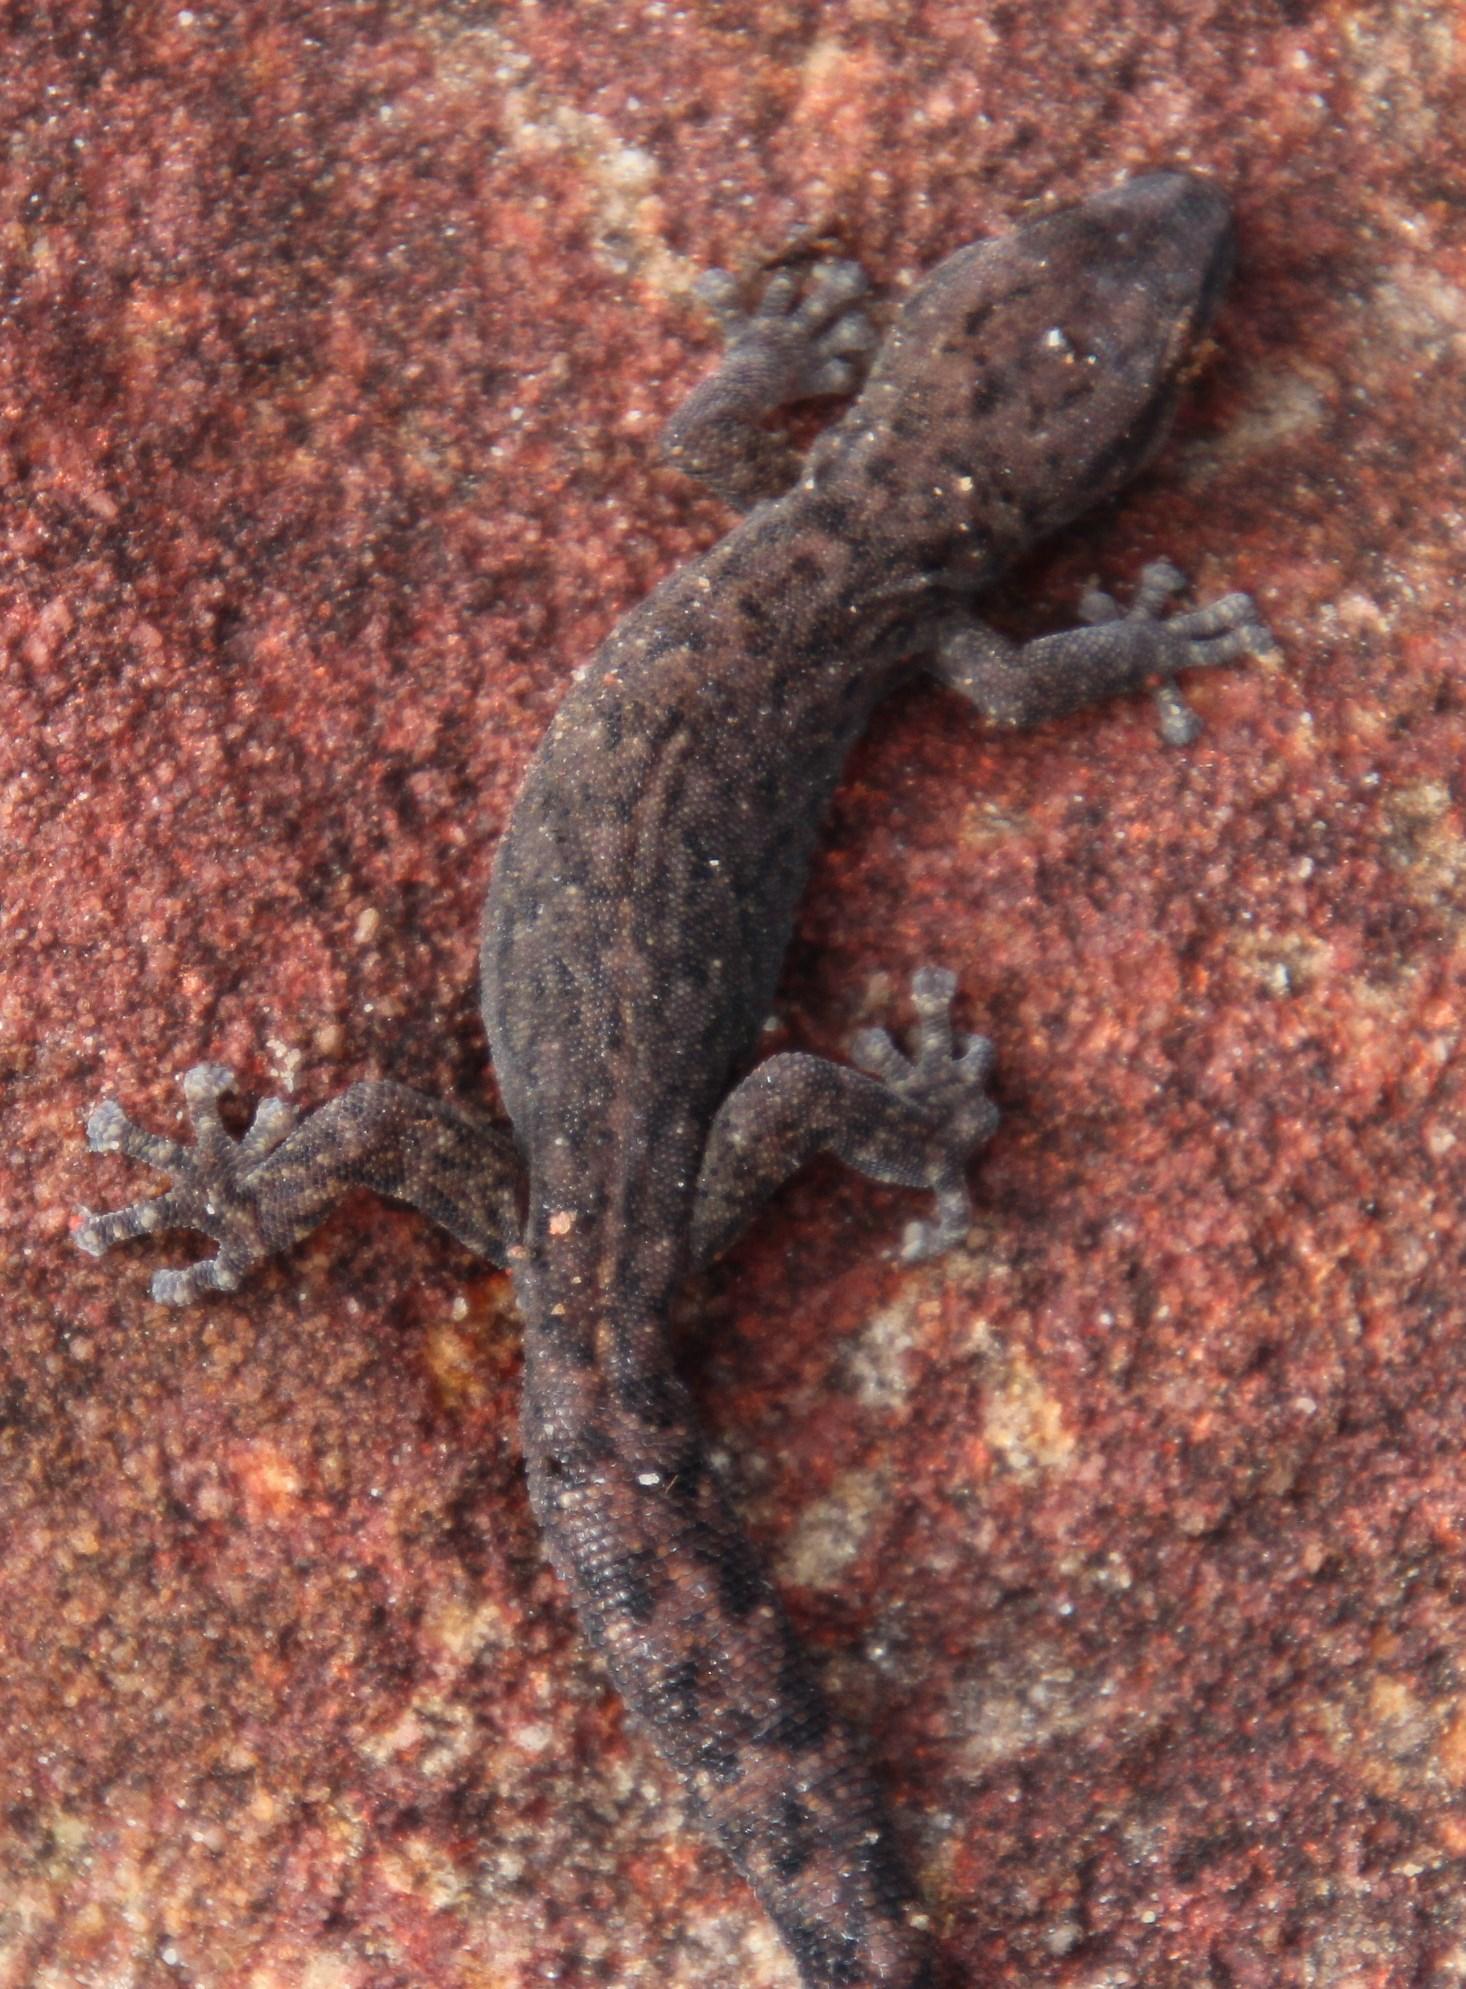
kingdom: Animalia
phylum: Chordata
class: Squamata
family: Gekkonidae
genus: Afrogecko
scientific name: Afrogecko porphyreus
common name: Marbled leaf-toed gecko
